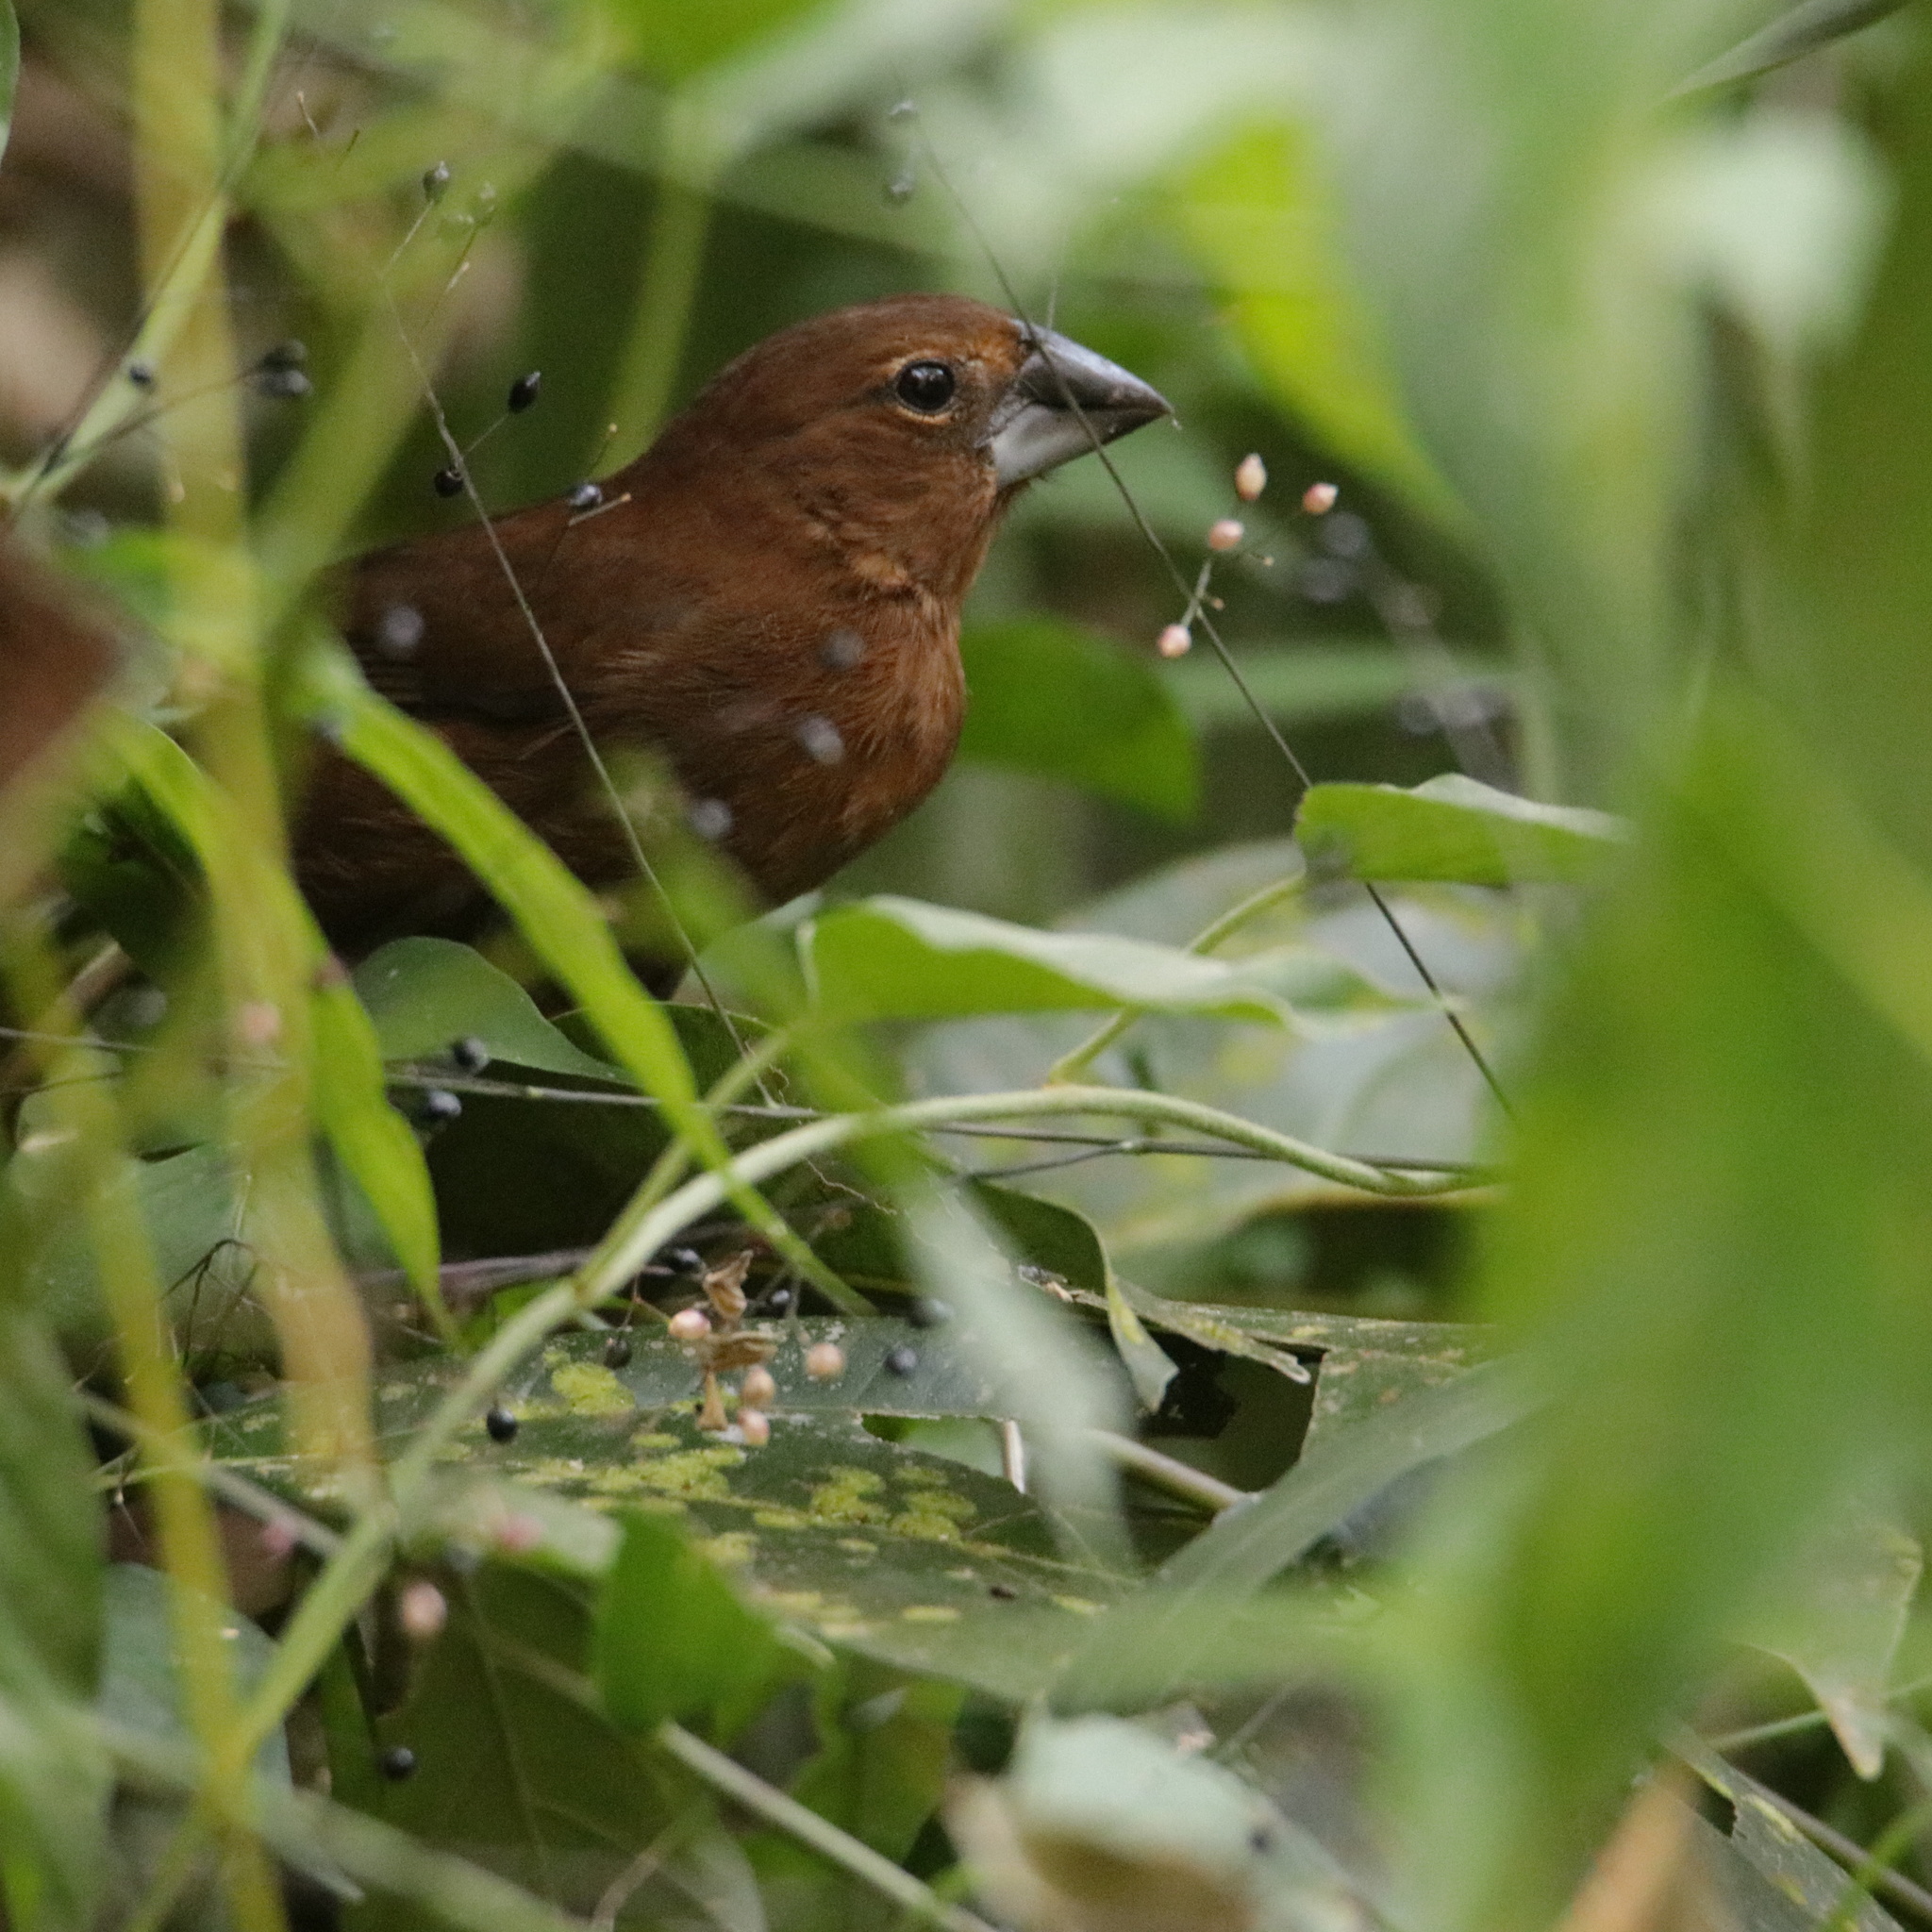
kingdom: Animalia
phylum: Chordata
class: Aves
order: Passeriformes
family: Cardinalidae
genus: Cyanocompsa
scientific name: Cyanocompsa cyanoides
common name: Blue-black grosbeak
